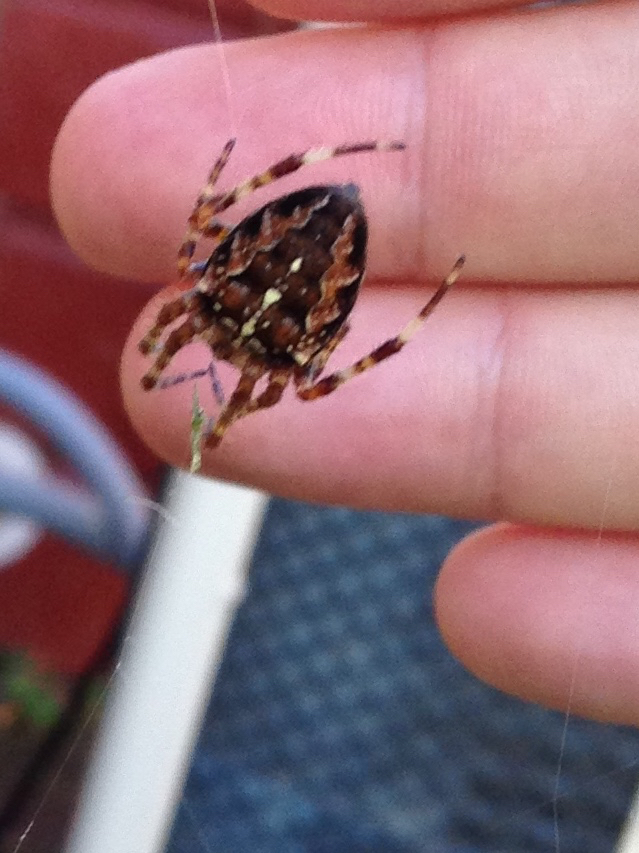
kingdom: Animalia
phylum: Arthropoda
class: Arachnida
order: Araneae
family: Araneidae
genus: Araneus
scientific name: Araneus diadematus
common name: Cross orbweaver
